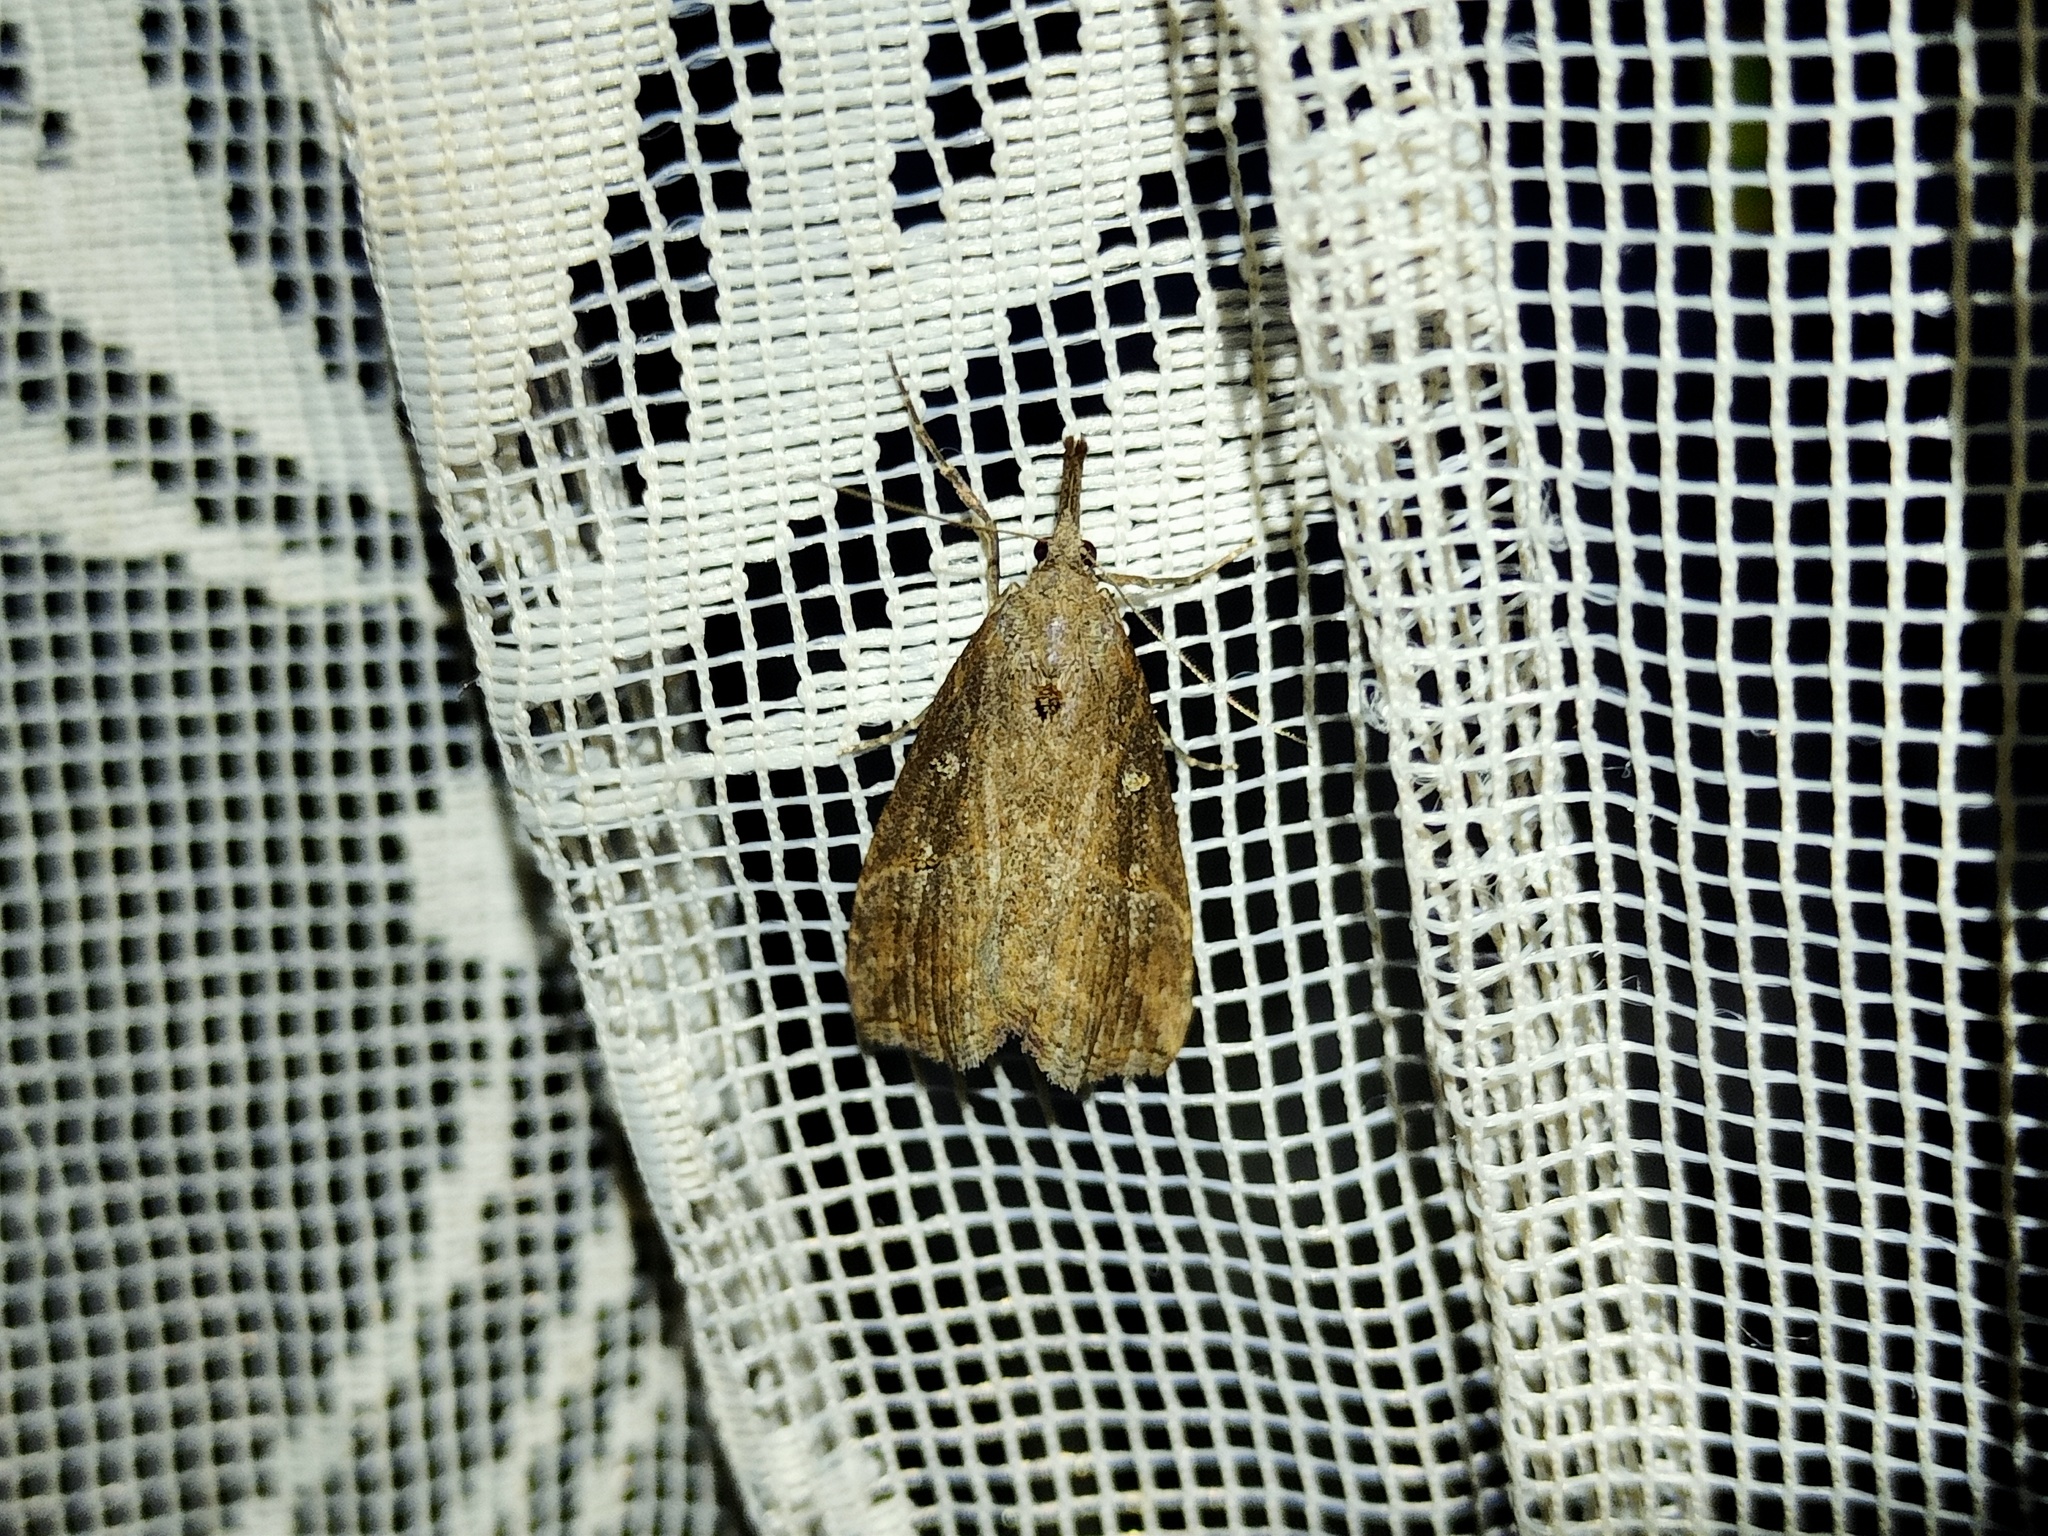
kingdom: Animalia
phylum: Arthropoda
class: Insecta
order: Lepidoptera
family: Erebidae
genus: Hypena
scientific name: Hypena rostralis
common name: Buttoned snout
